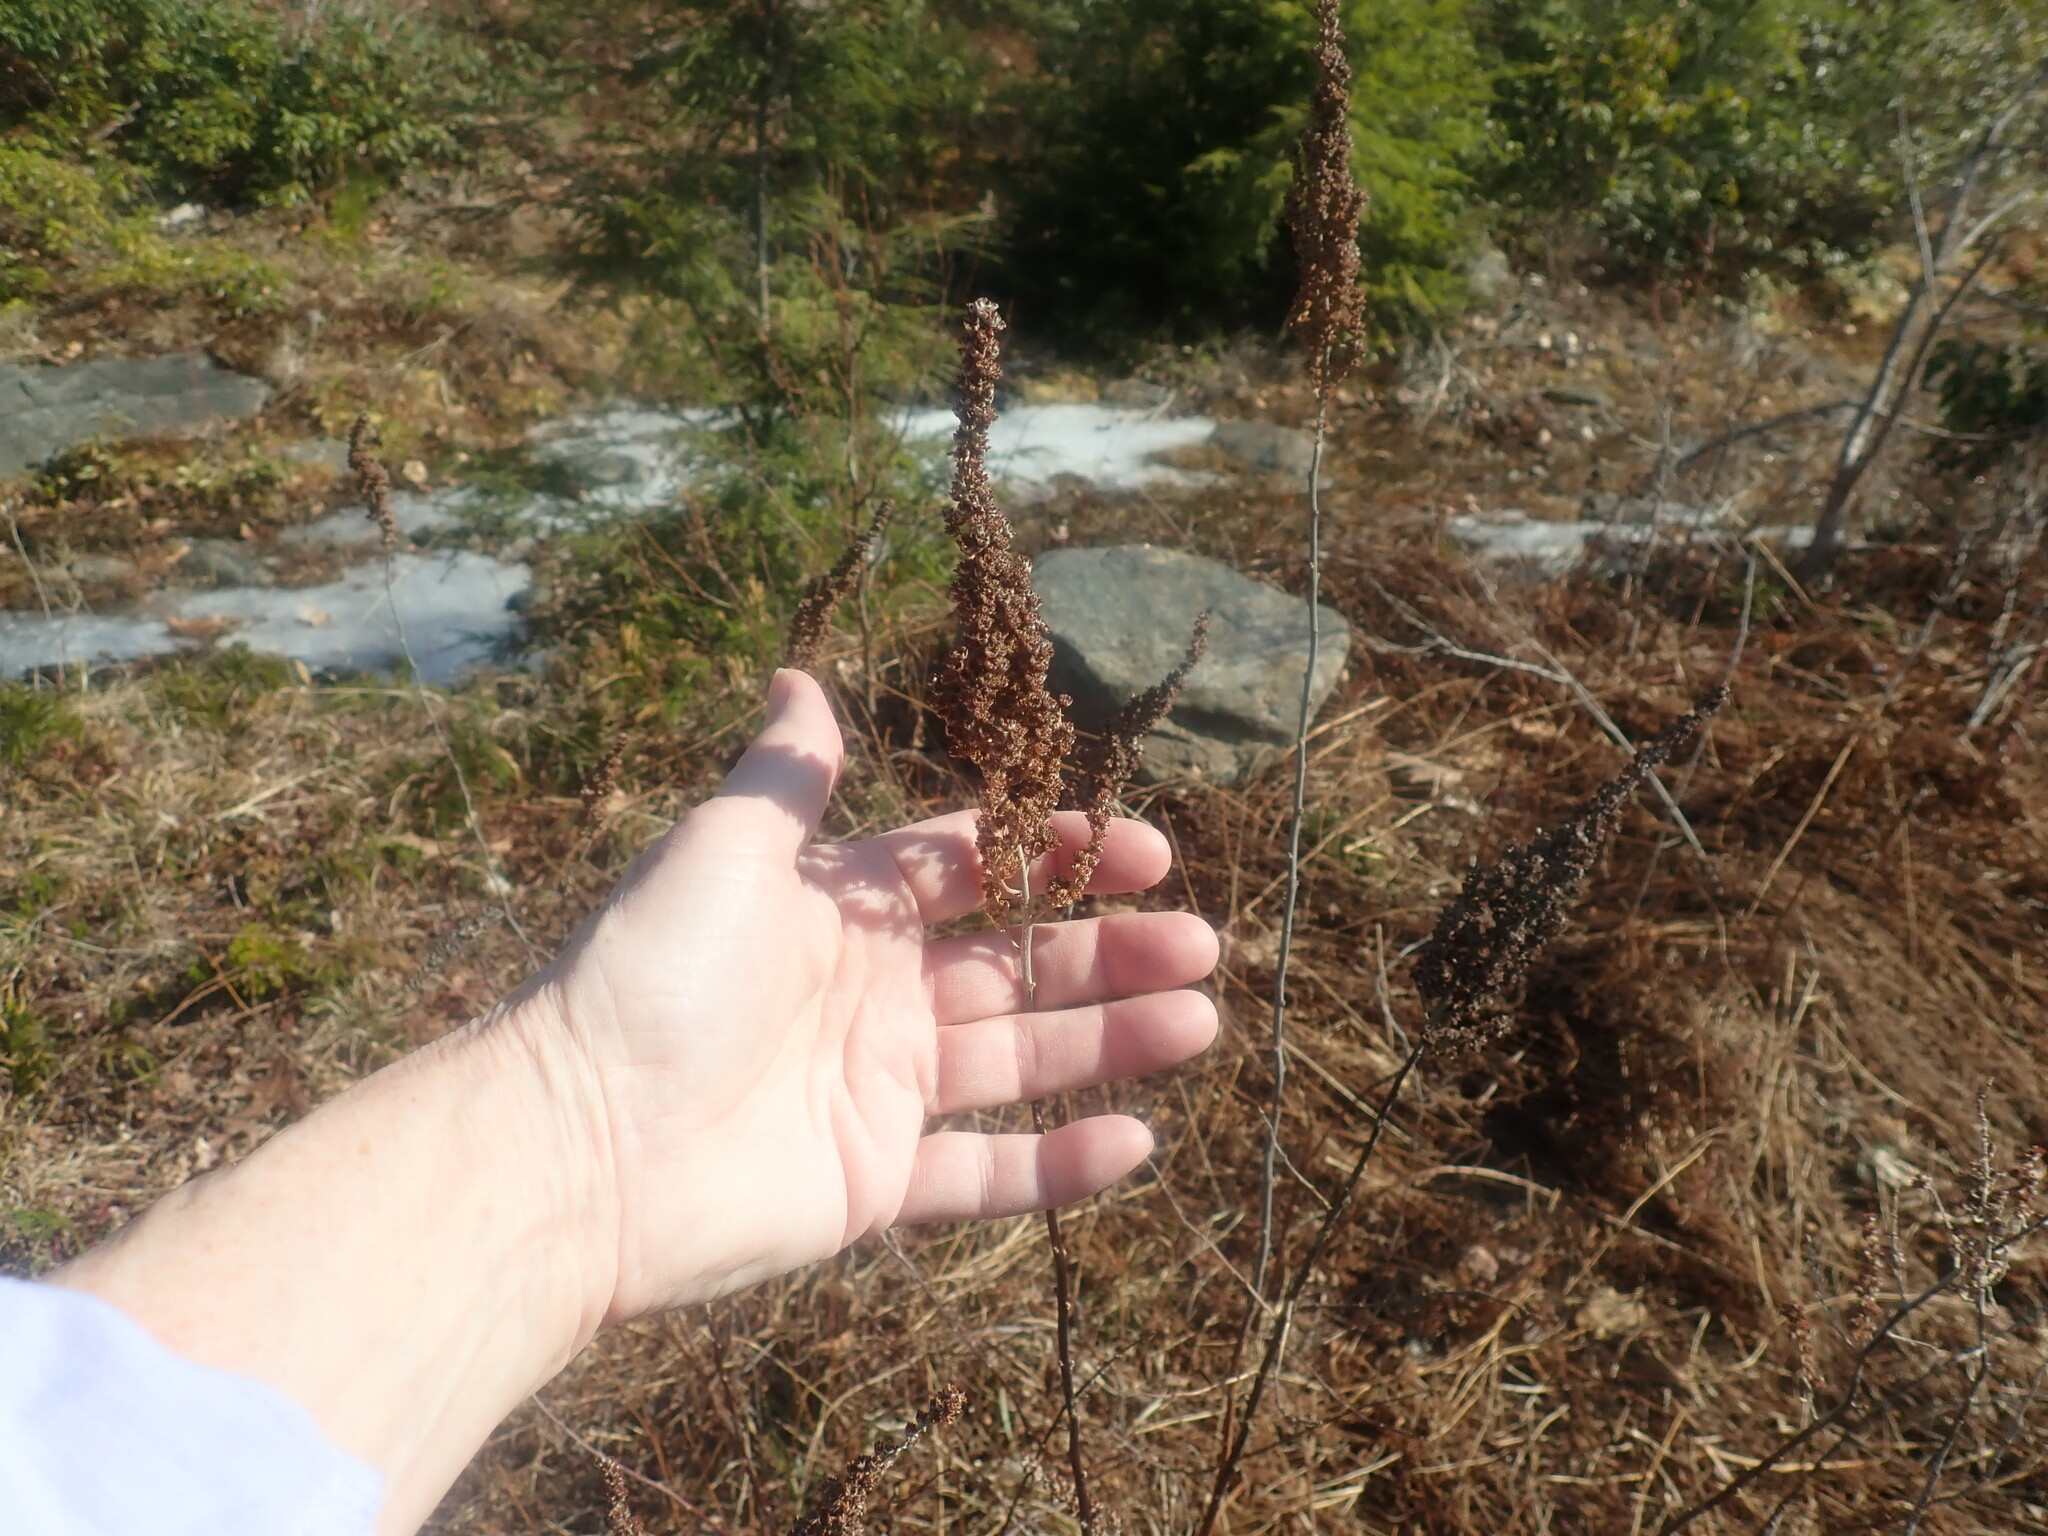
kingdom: Plantae
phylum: Tracheophyta
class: Magnoliopsida
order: Rosales
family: Rosaceae
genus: Spiraea
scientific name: Spiraea tomentosa
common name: Hardhack
